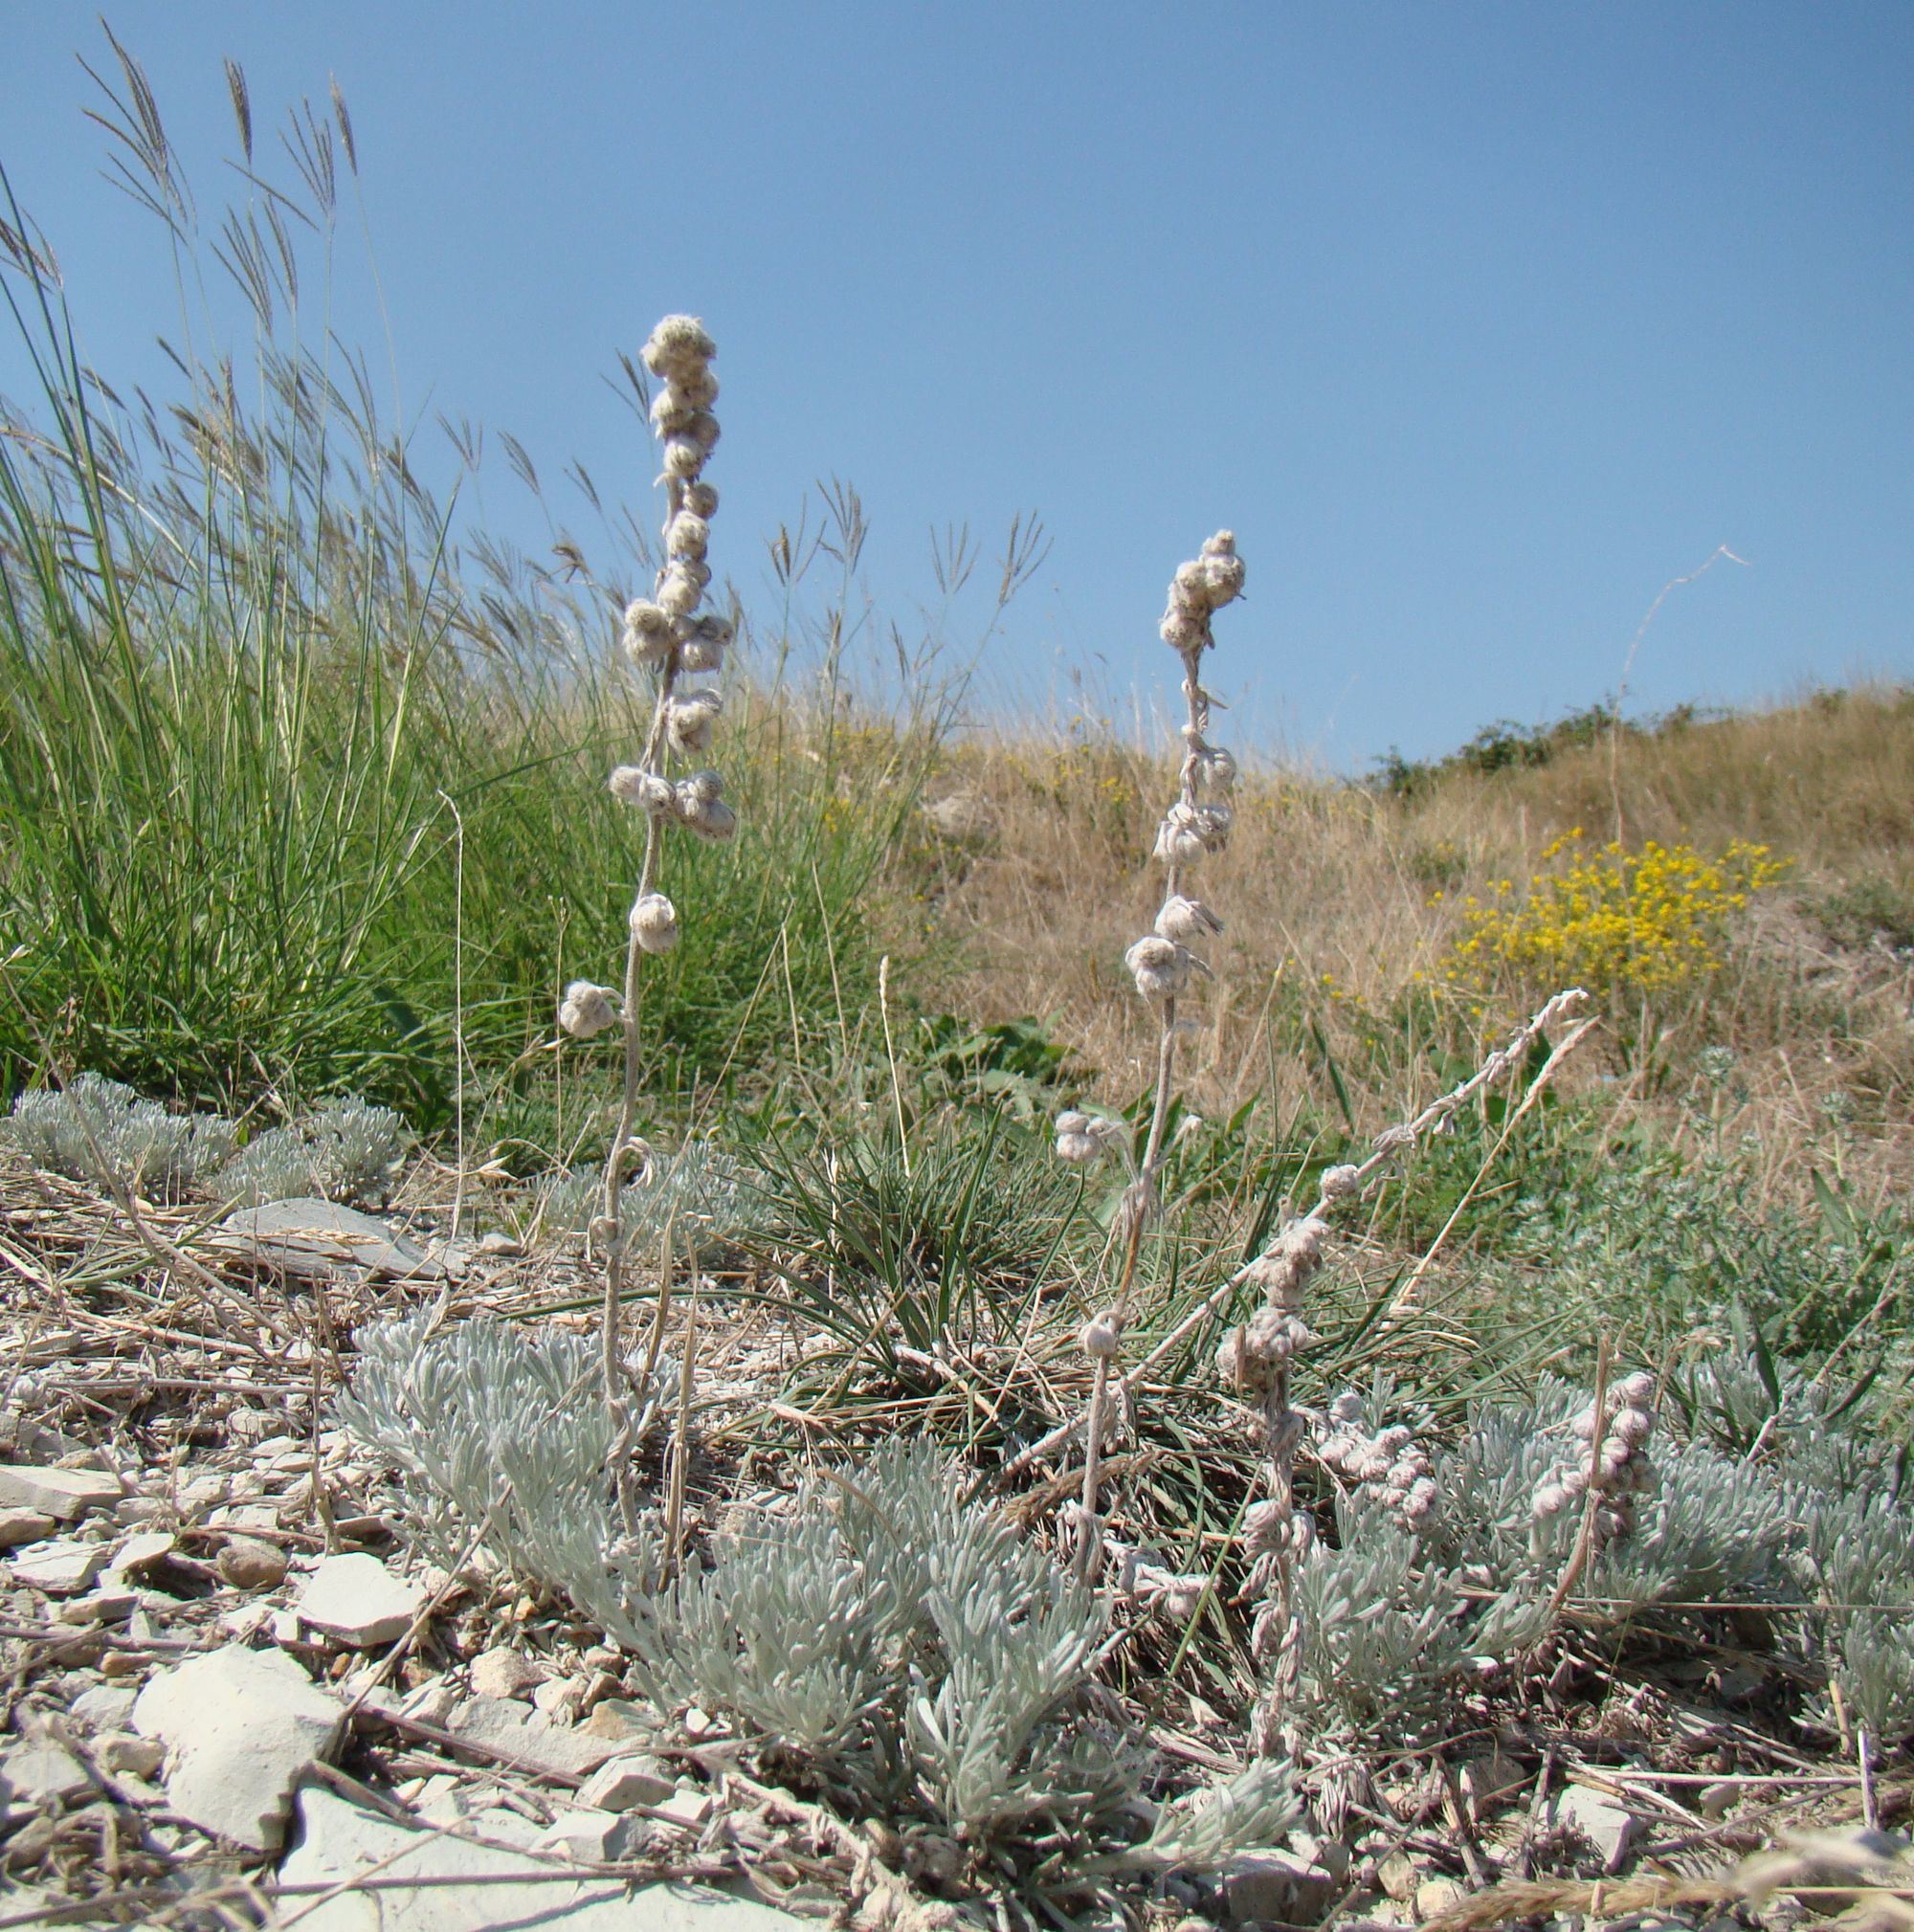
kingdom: Plantae
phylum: Tracheophyta
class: Magnoliopsida
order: Asterales
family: Asteraceae
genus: Artemisia
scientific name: Artemisia alpina
